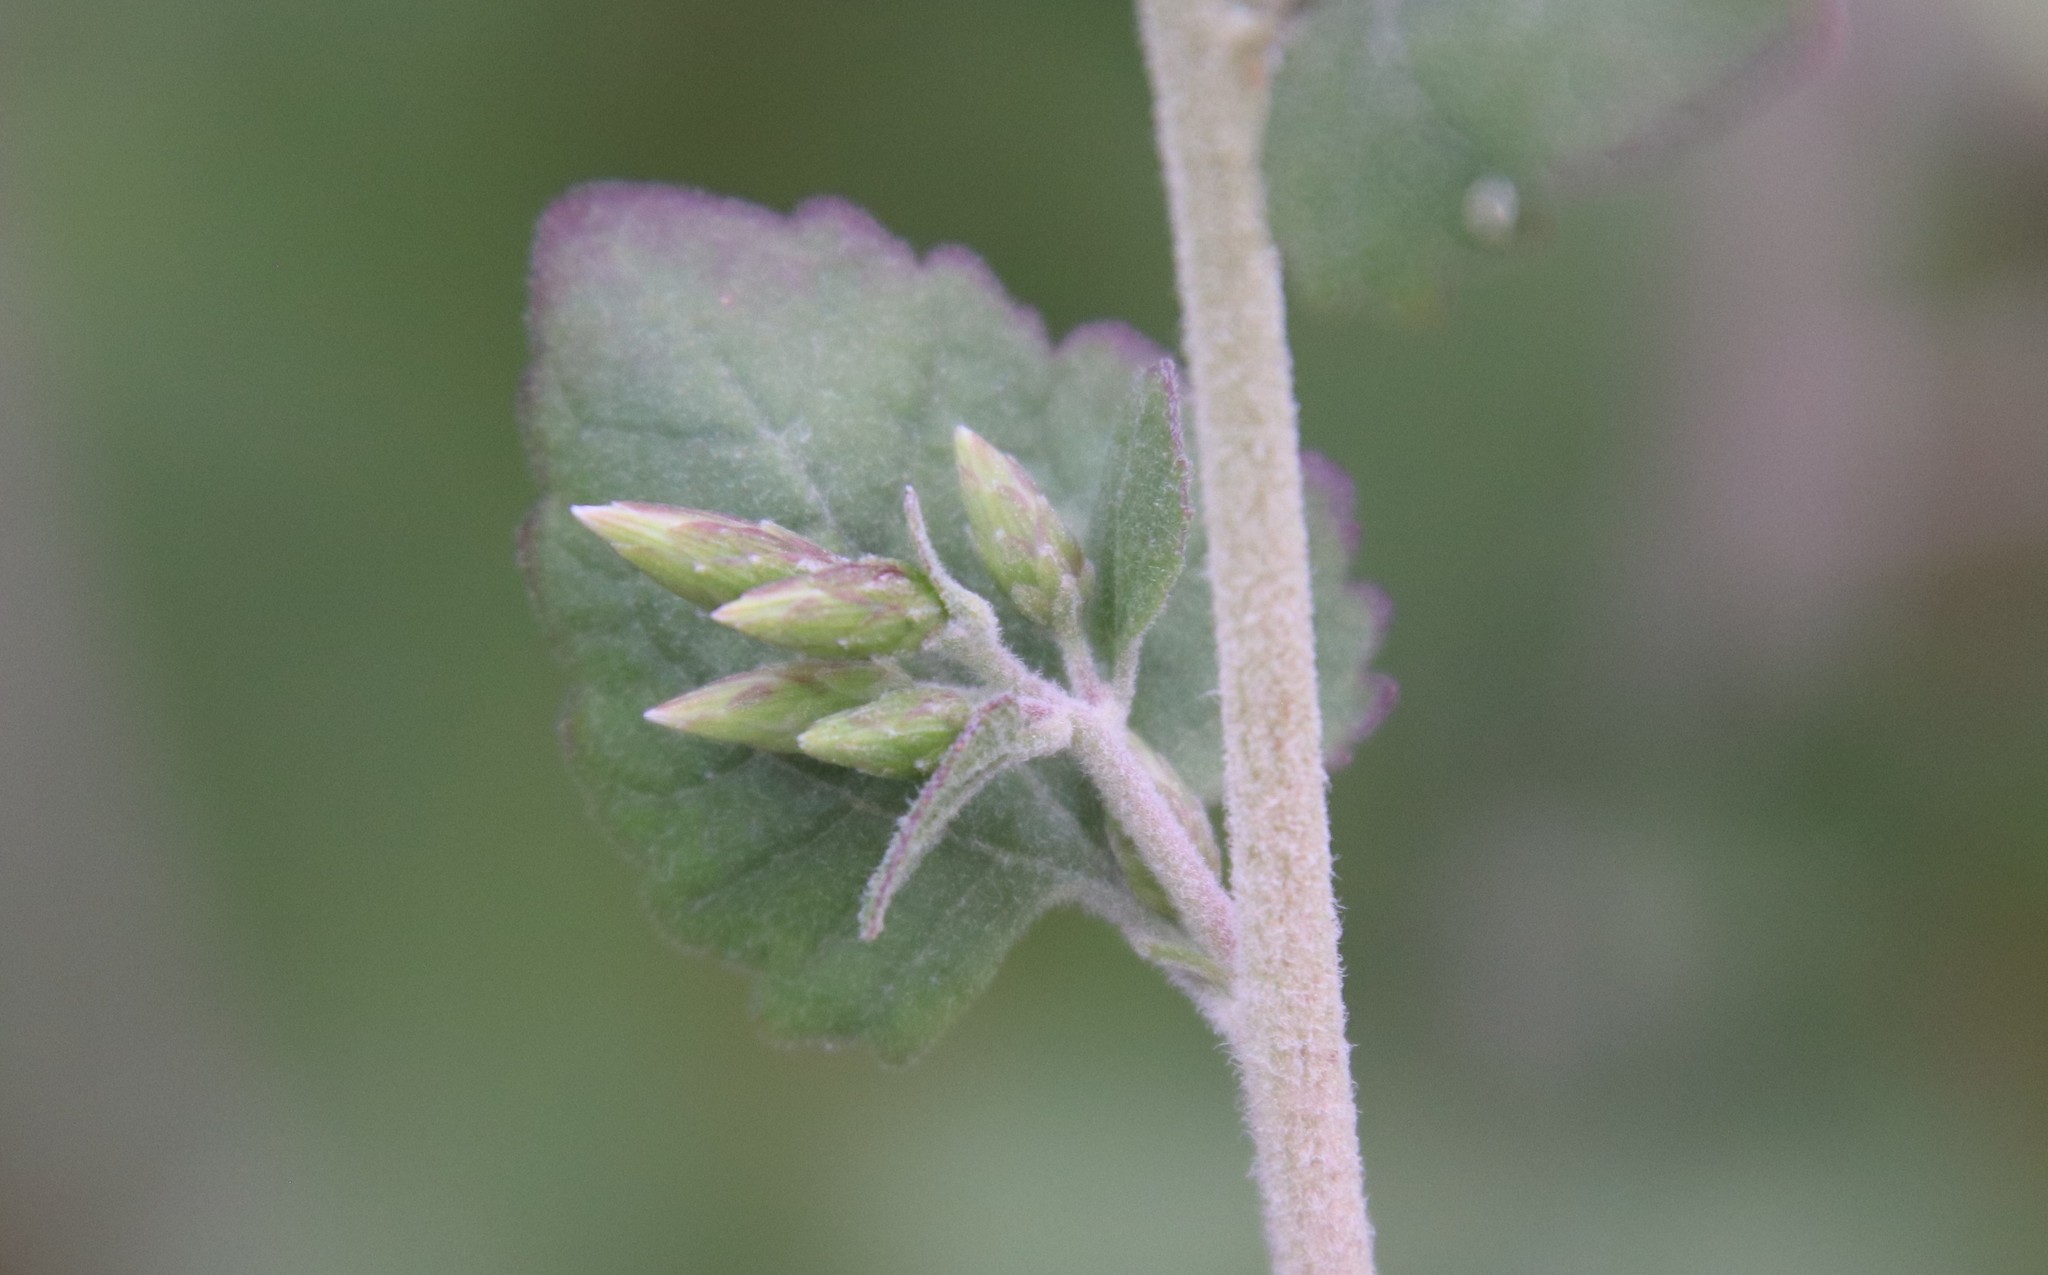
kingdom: Plantae
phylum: Tracheophyta
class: Magnoliopsida
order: Asterales
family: Asteraceae
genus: Brickellia
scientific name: Brickellia californica
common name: California brickellbush
